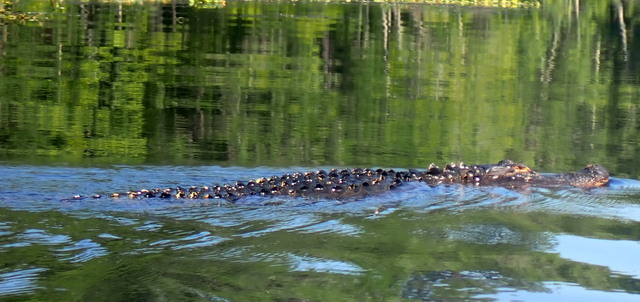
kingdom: Animalia
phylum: Chordata
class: Crocodylia
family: Alligatoridae
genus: Alligator
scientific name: Alligator mississippiensis
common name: American alligator
